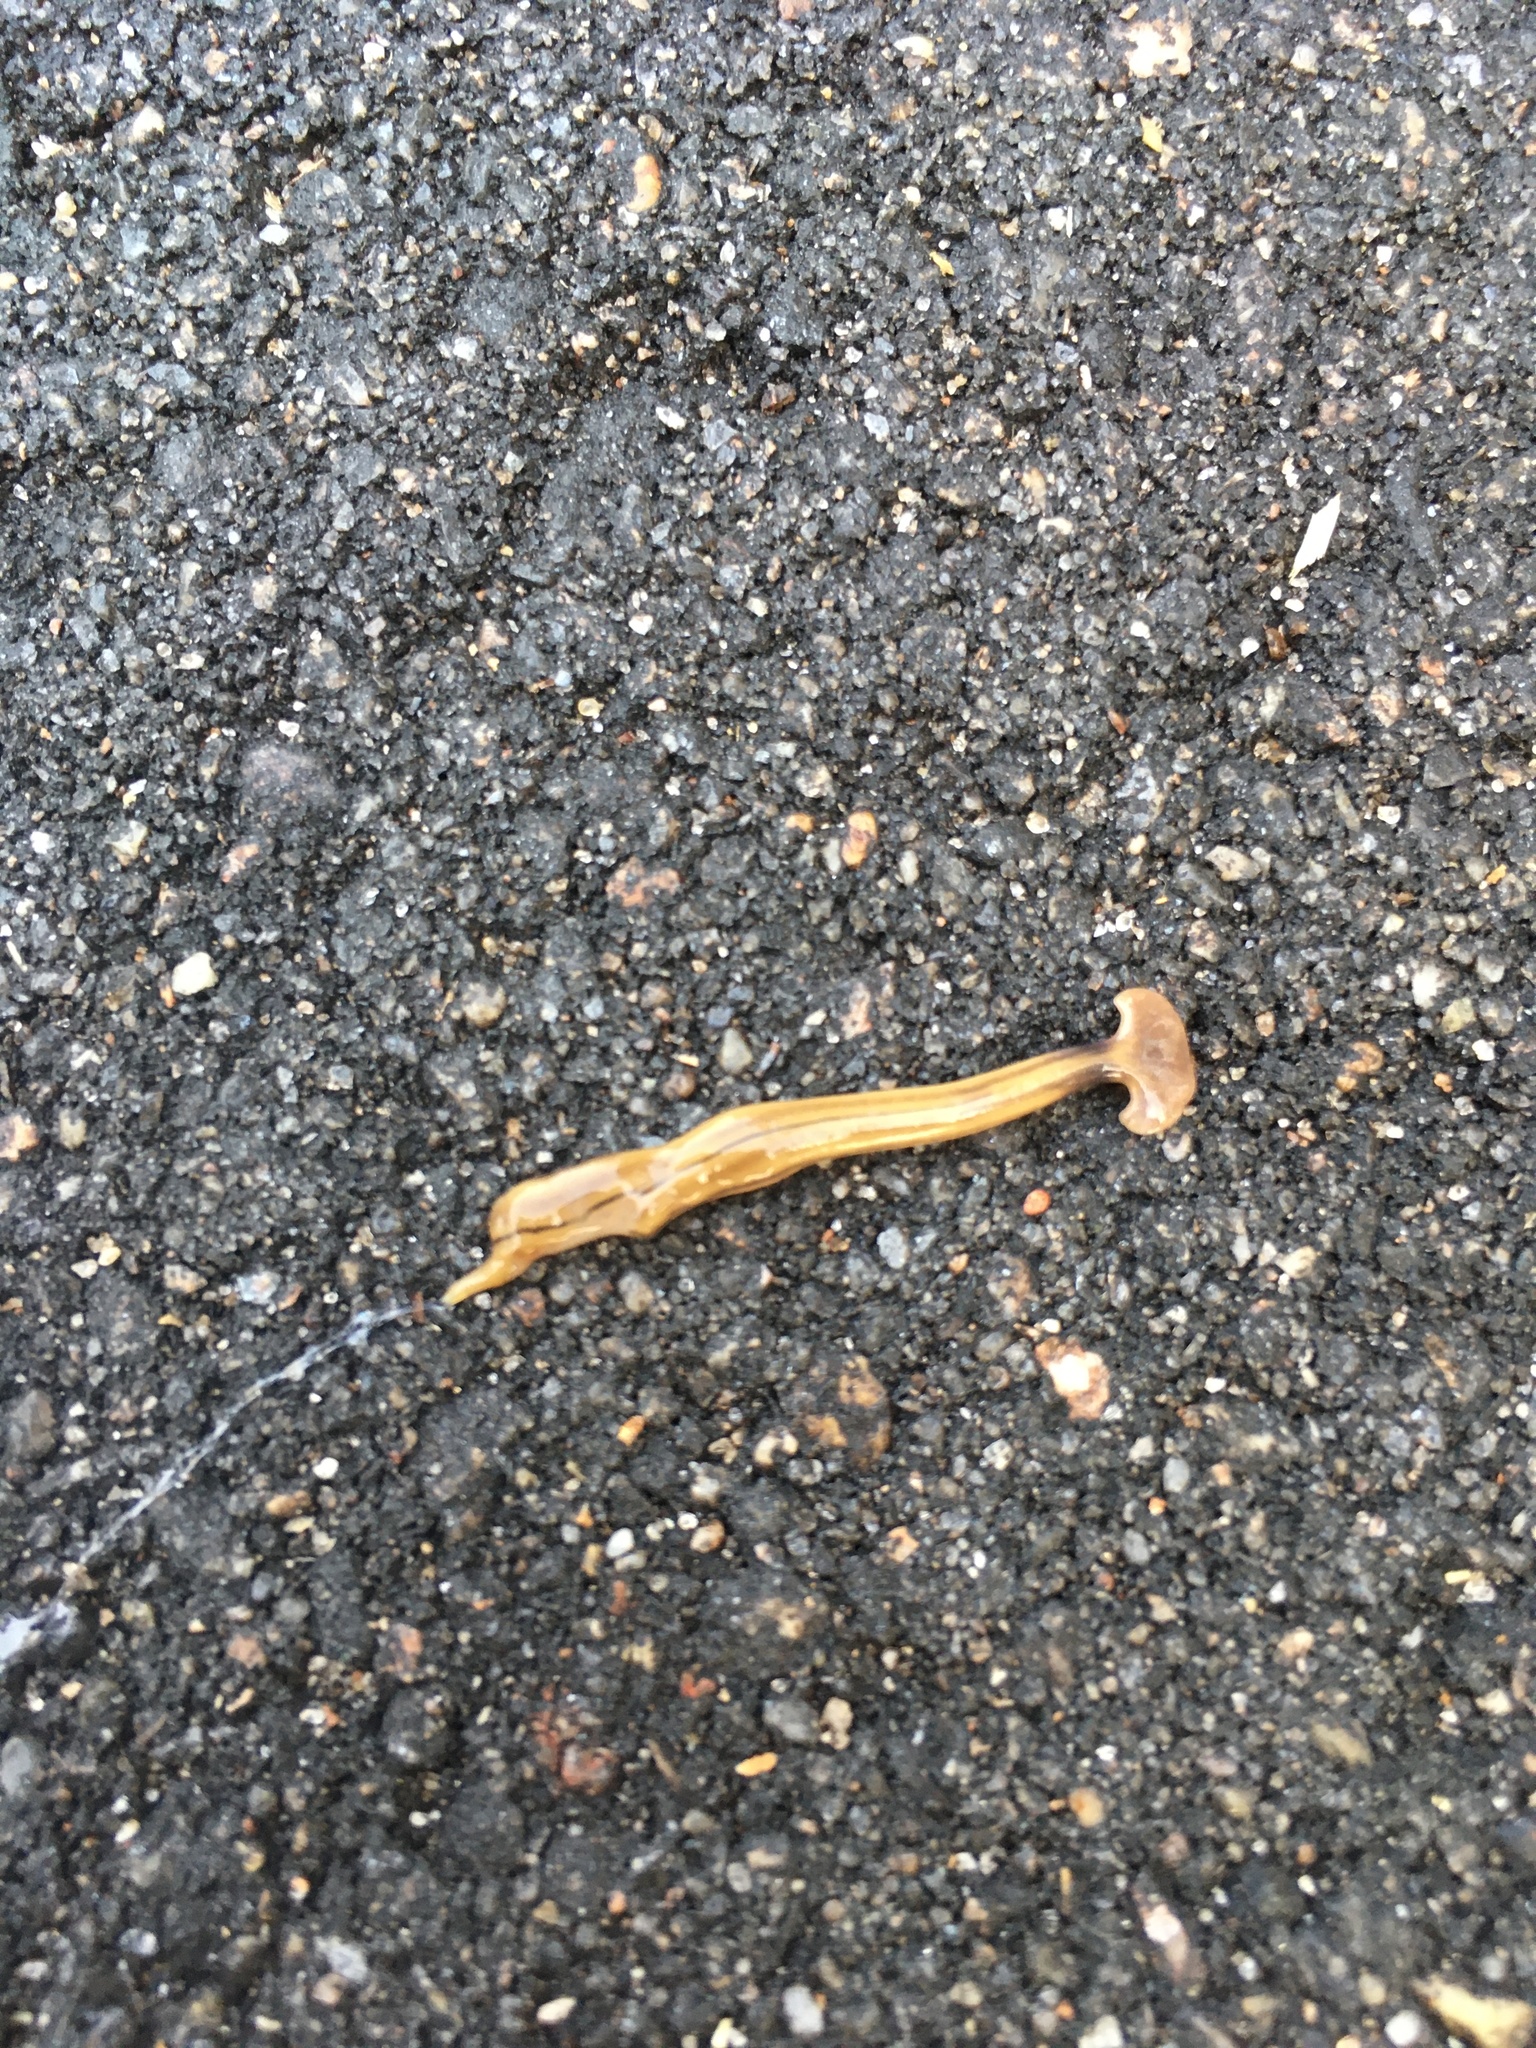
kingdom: Animalia
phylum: Platyhelminthes
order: Tricladida
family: Geoplanidae
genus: Bipalium
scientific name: Bipalium kewense
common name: Hammerhead flatworm
